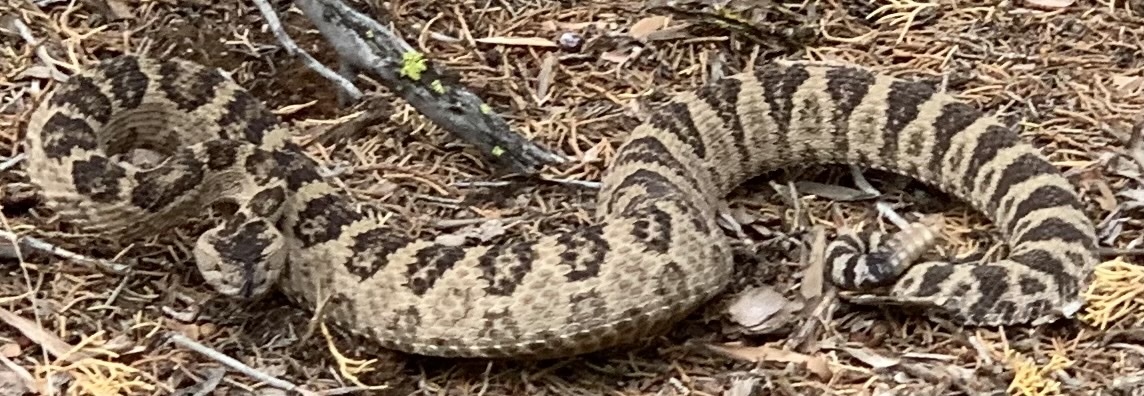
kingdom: Animalia
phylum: Chordata
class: Squamata
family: Viperidae
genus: Crotalus
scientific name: Crotalus oreganus
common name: Abyssus
